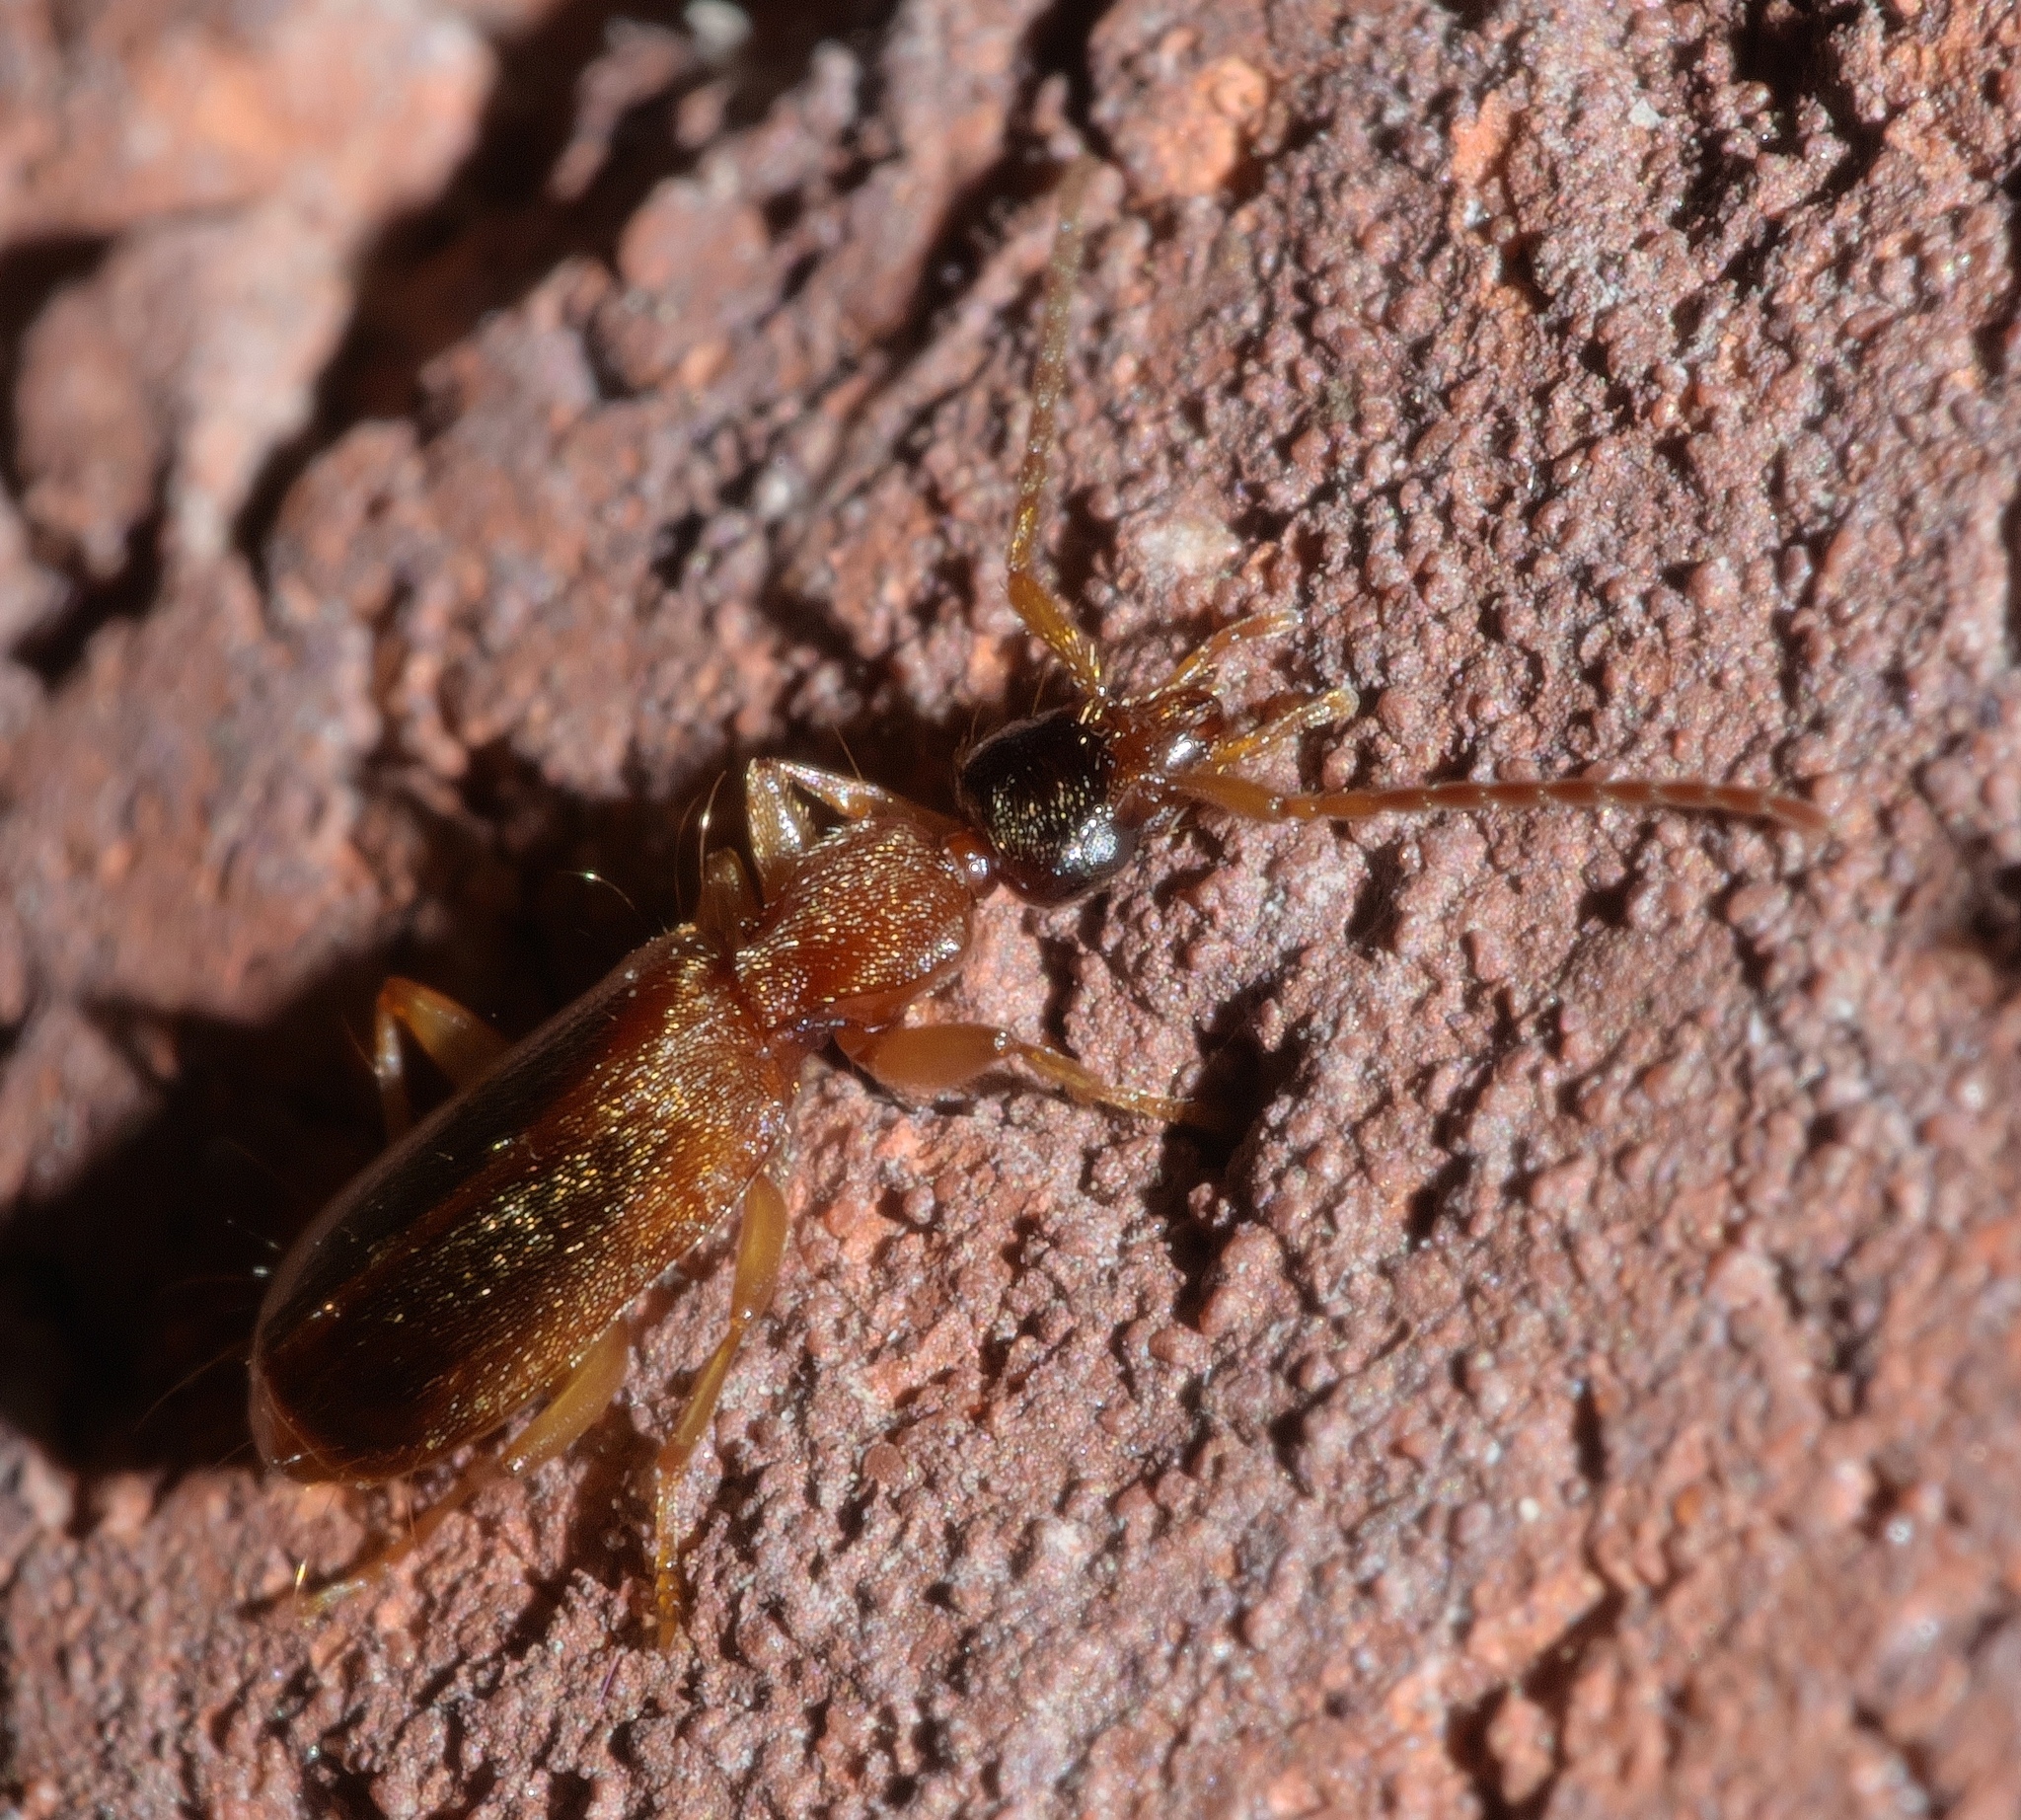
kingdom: Animalia
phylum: Arthropoda
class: Insecta
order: Coleoptera
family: Carabidae
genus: Zuphioides
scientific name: Zuphioides americanum
